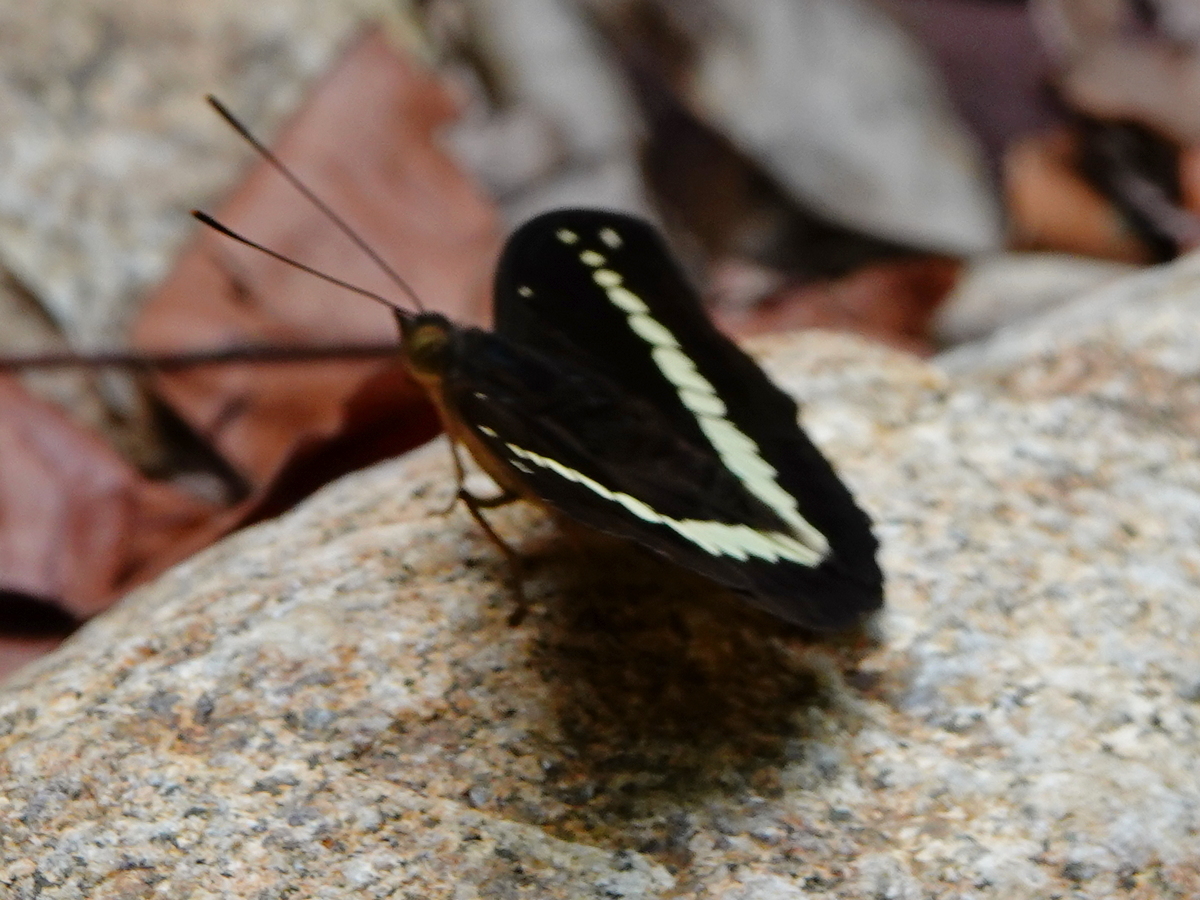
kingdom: Animalia
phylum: Arthropoda
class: Insecta
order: Lepidoptera
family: Nymphalidae
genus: Limenitis
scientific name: Limenitis Sumalia daraxa
